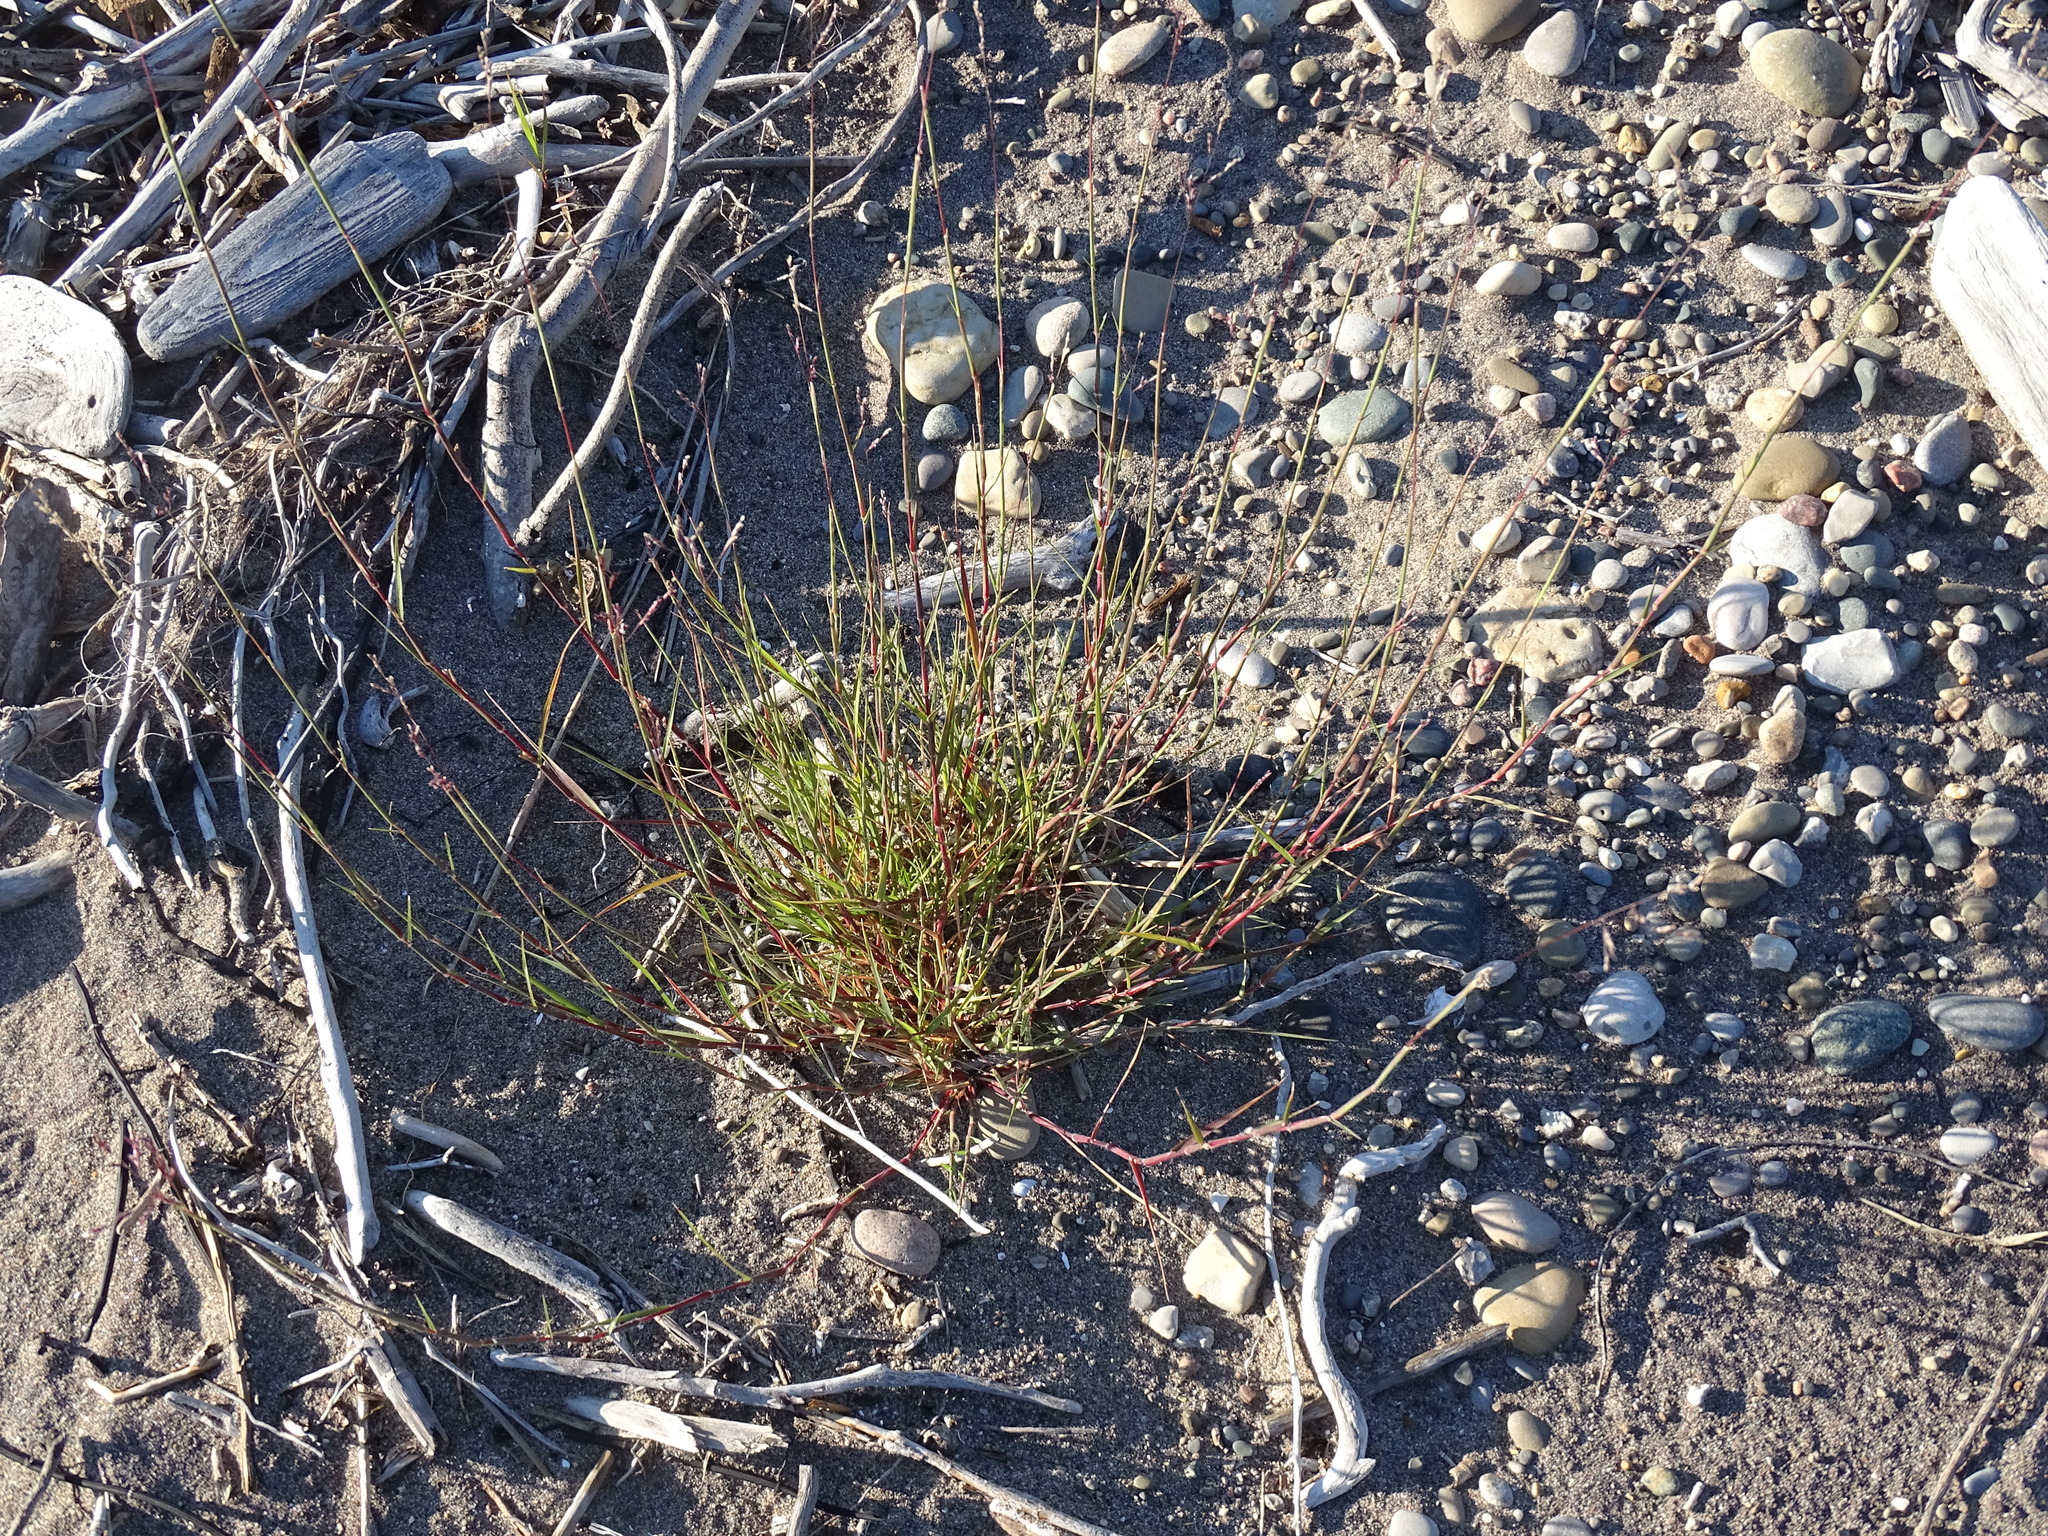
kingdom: Plantae
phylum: Tracheophyta
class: Liliopsida
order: Poales
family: Poaceae
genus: Triplasis
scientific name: Triplasis purpurea
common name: Purple sand grass
